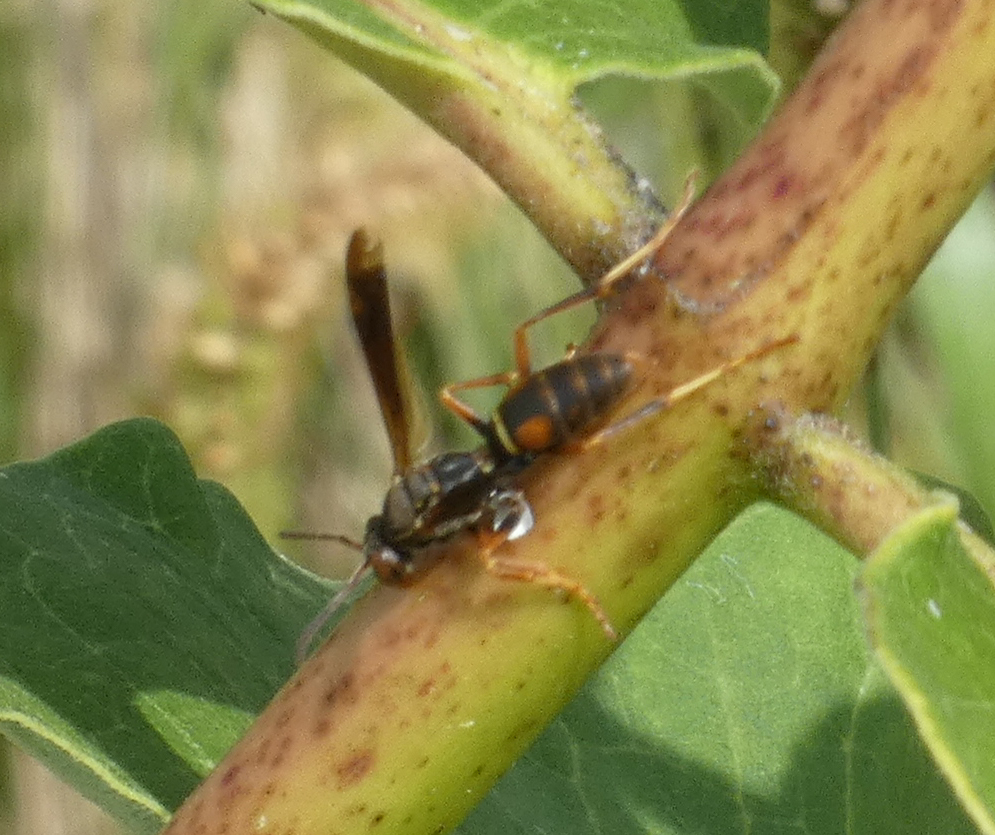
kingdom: Animalia
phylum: Arthropoda
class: Insecta
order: Hymenoptera
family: Eumenidae
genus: Polistes
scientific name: Polistes fuscatus
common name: Dark paper wasp
